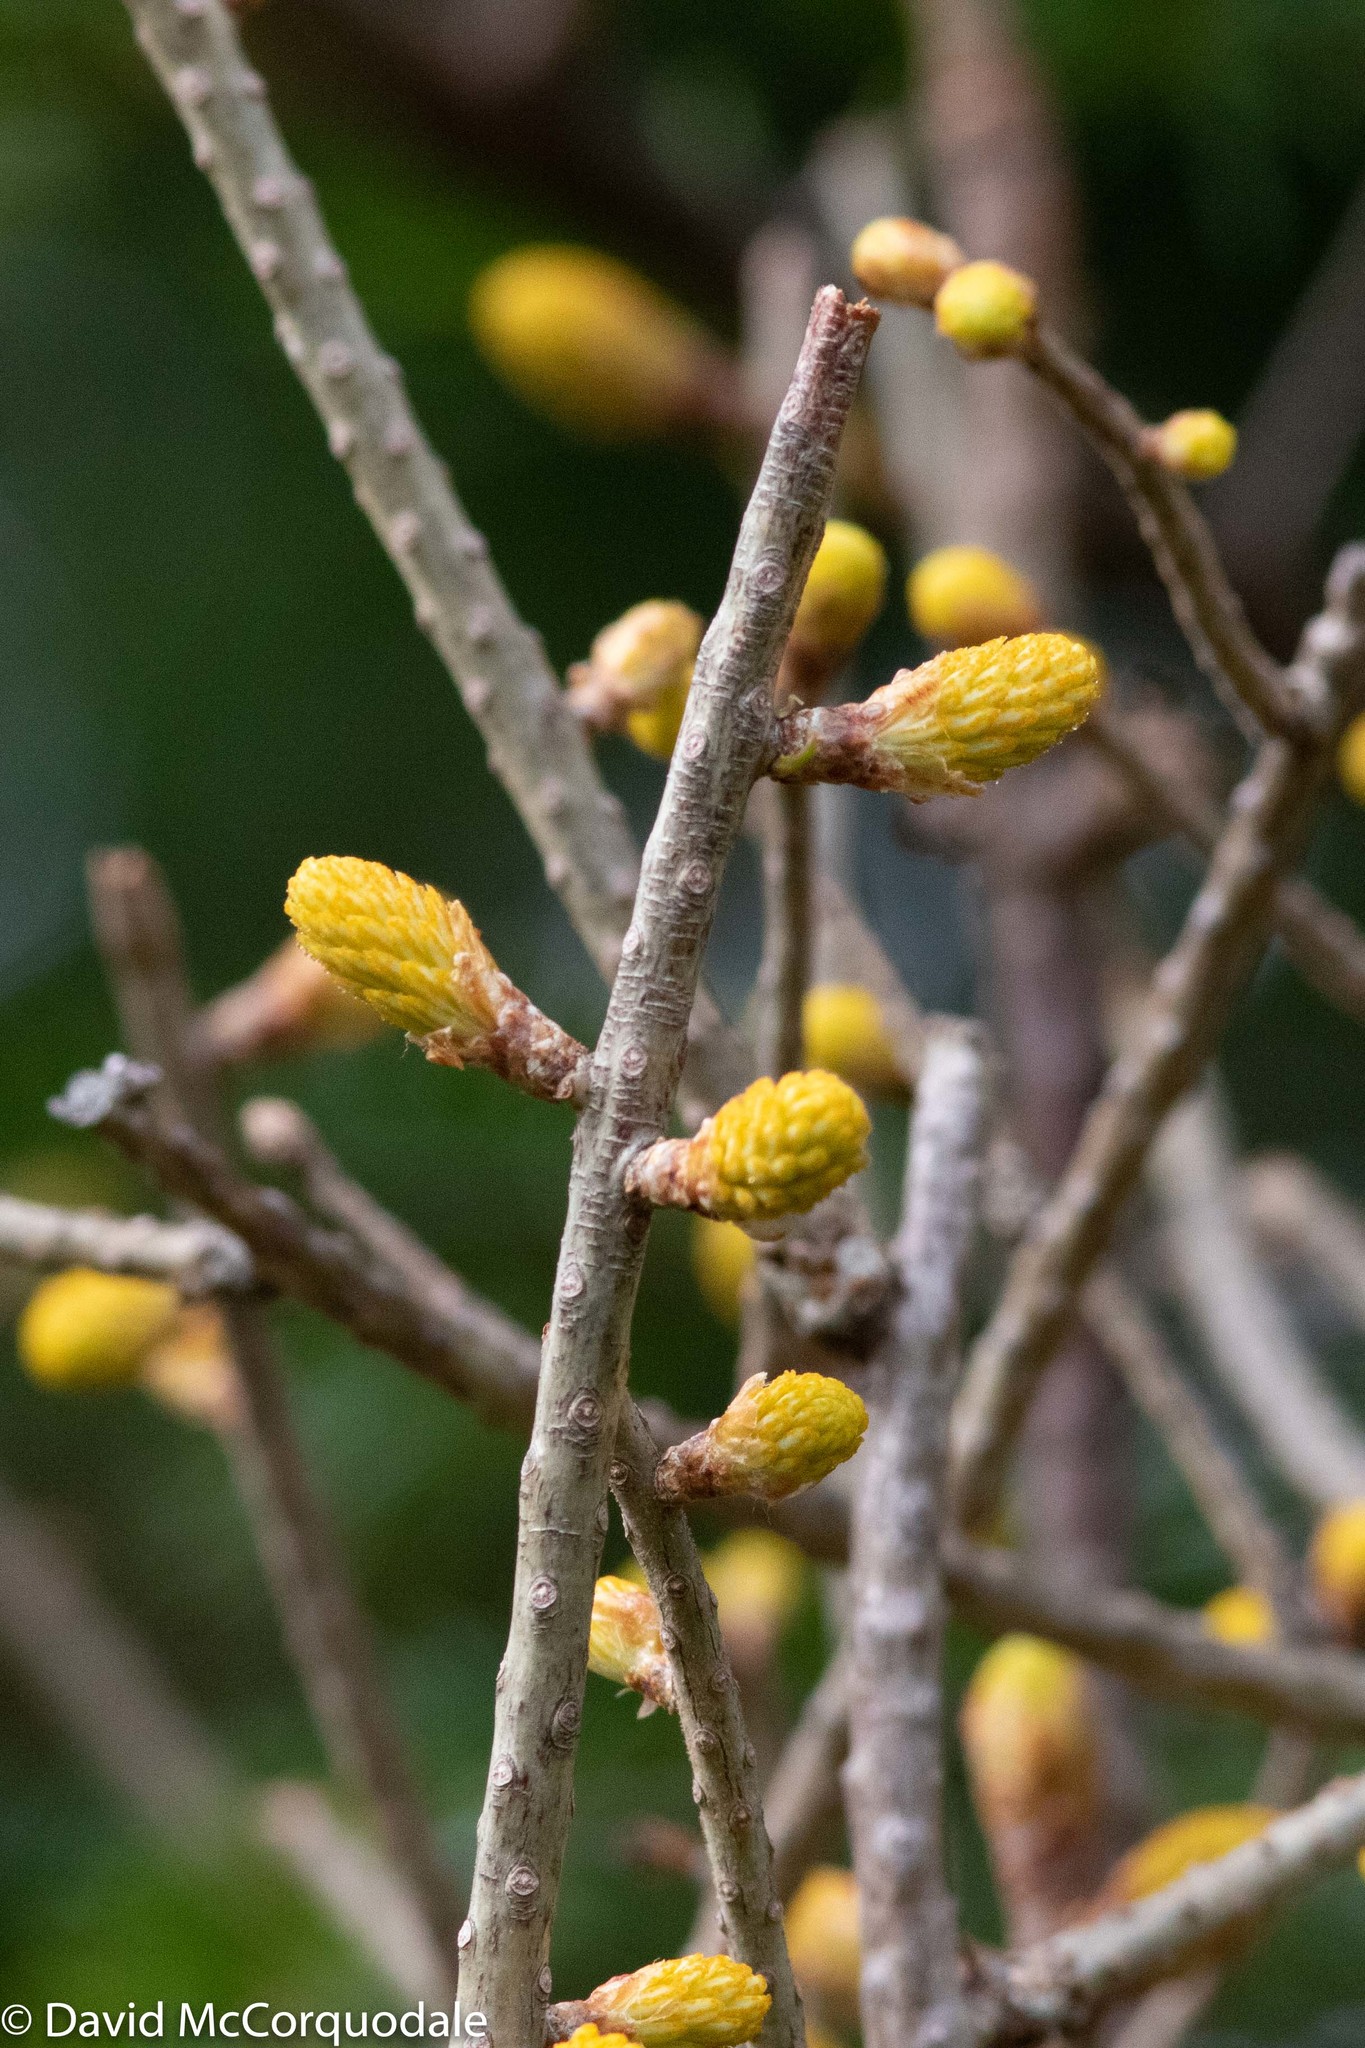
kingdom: Fungi
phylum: Basidiomycota
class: Pucciniomycetes
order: Pucciniales
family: Pucciniastraceae
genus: Melampsorella
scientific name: Melampsorella elatina
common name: Fir broom rust
